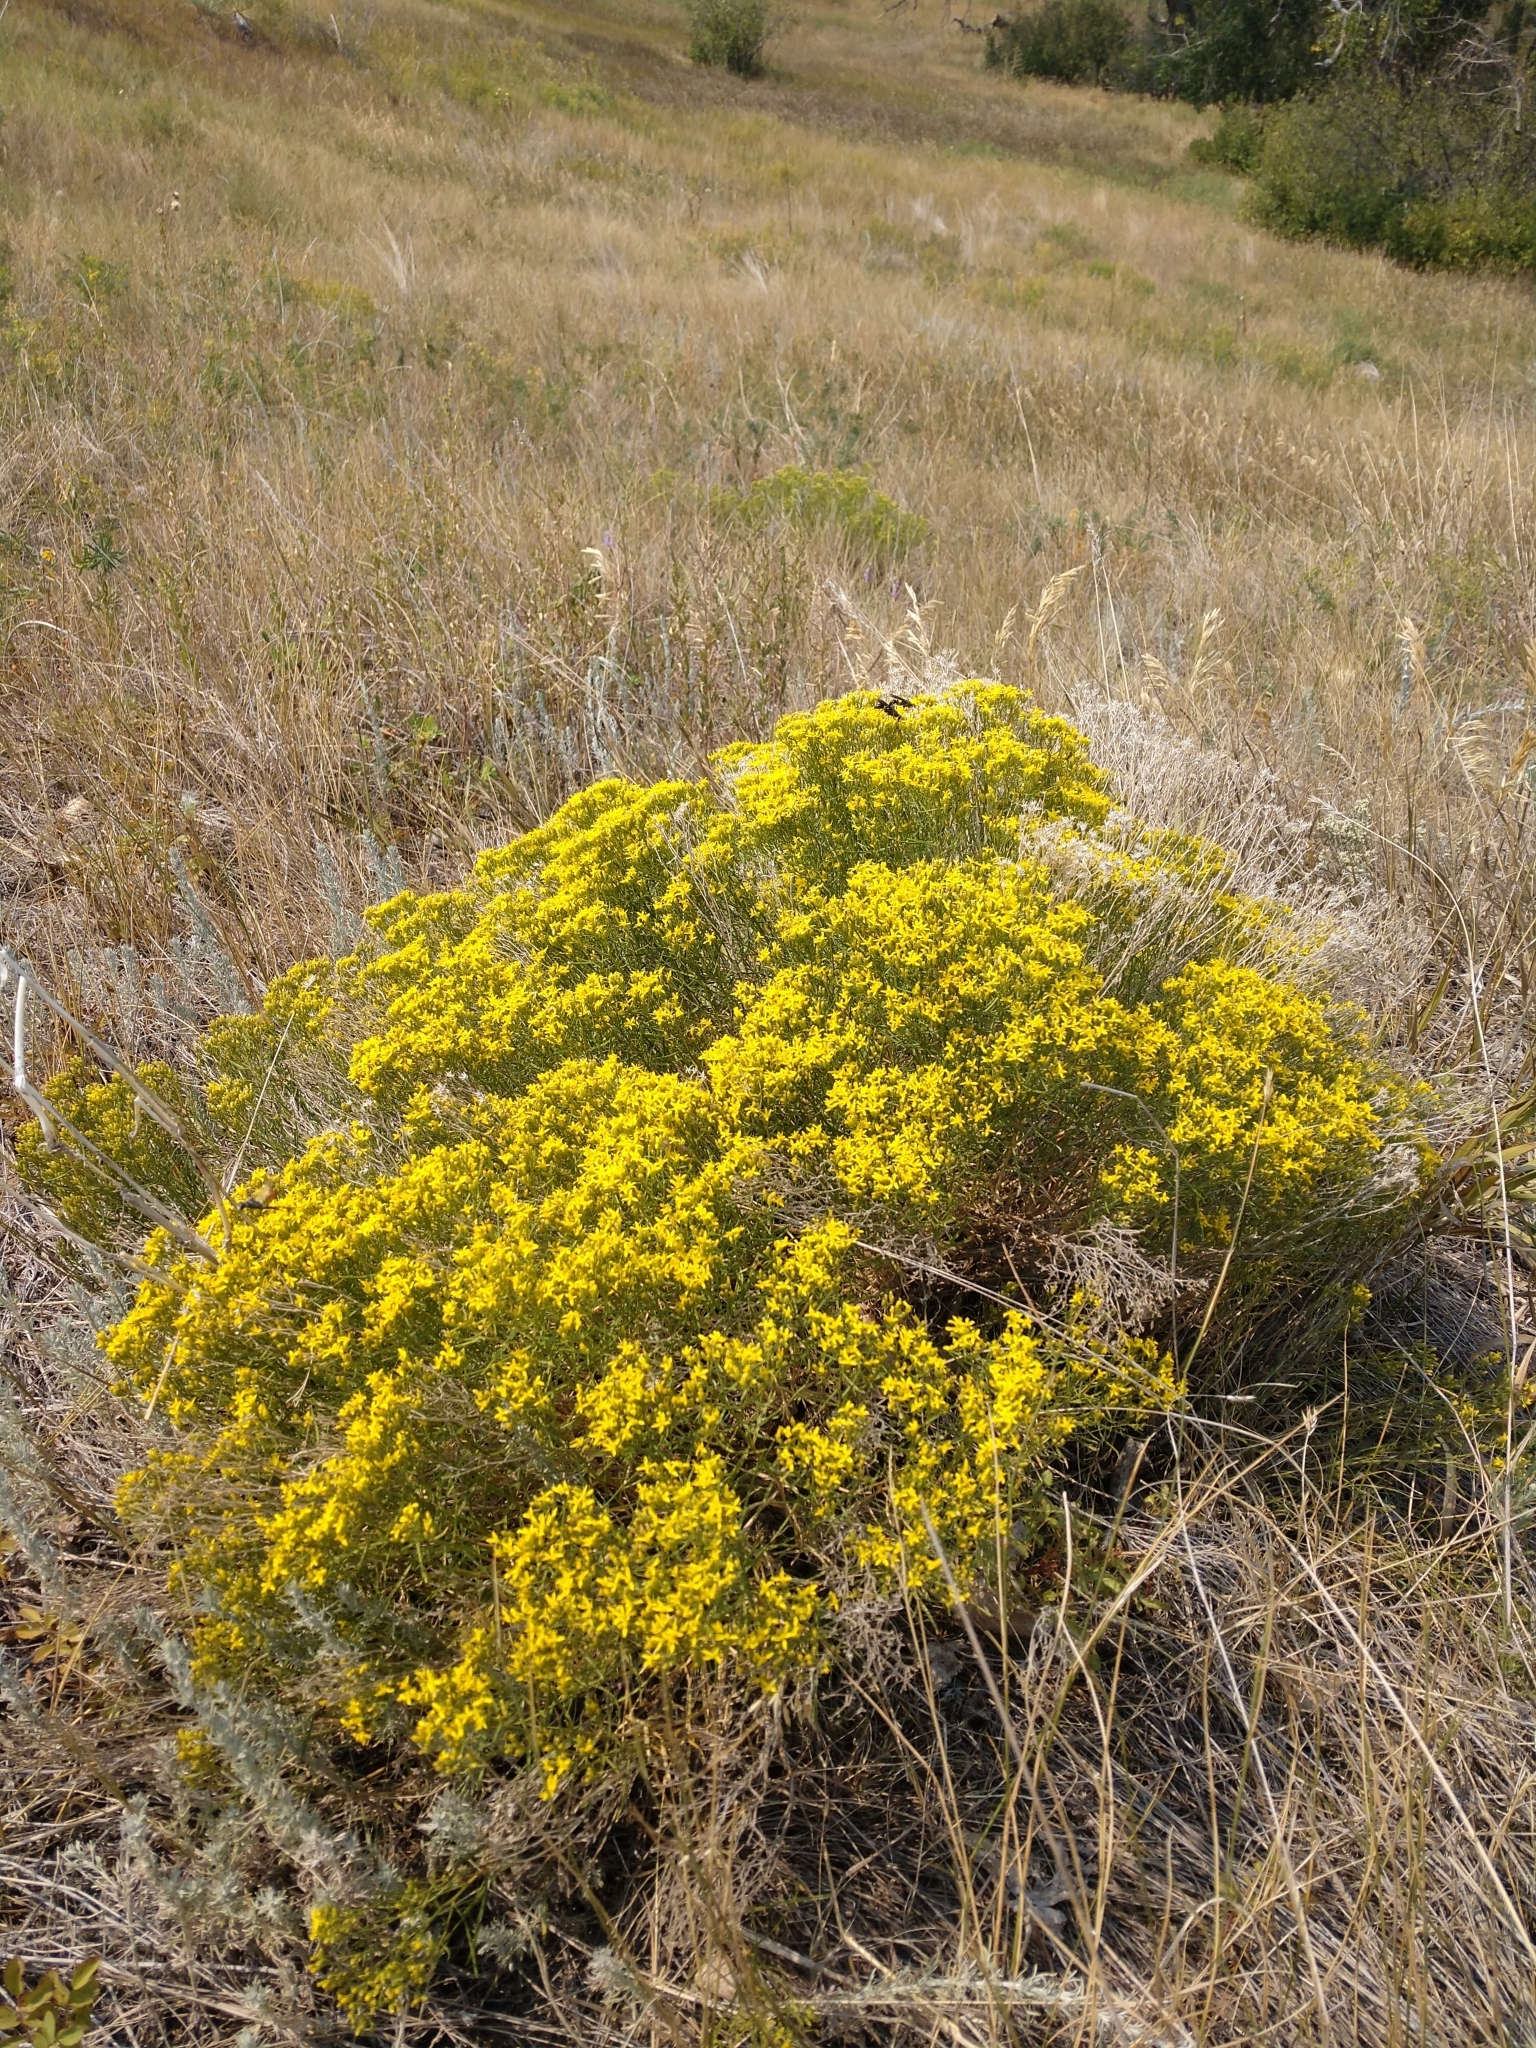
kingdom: Plantae
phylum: Tracheophyta
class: Magnoliopsida
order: Asterales
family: Asteraceae
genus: Gutierrezia
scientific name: Gutierrezia sarothrae
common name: Broom snakeweed
